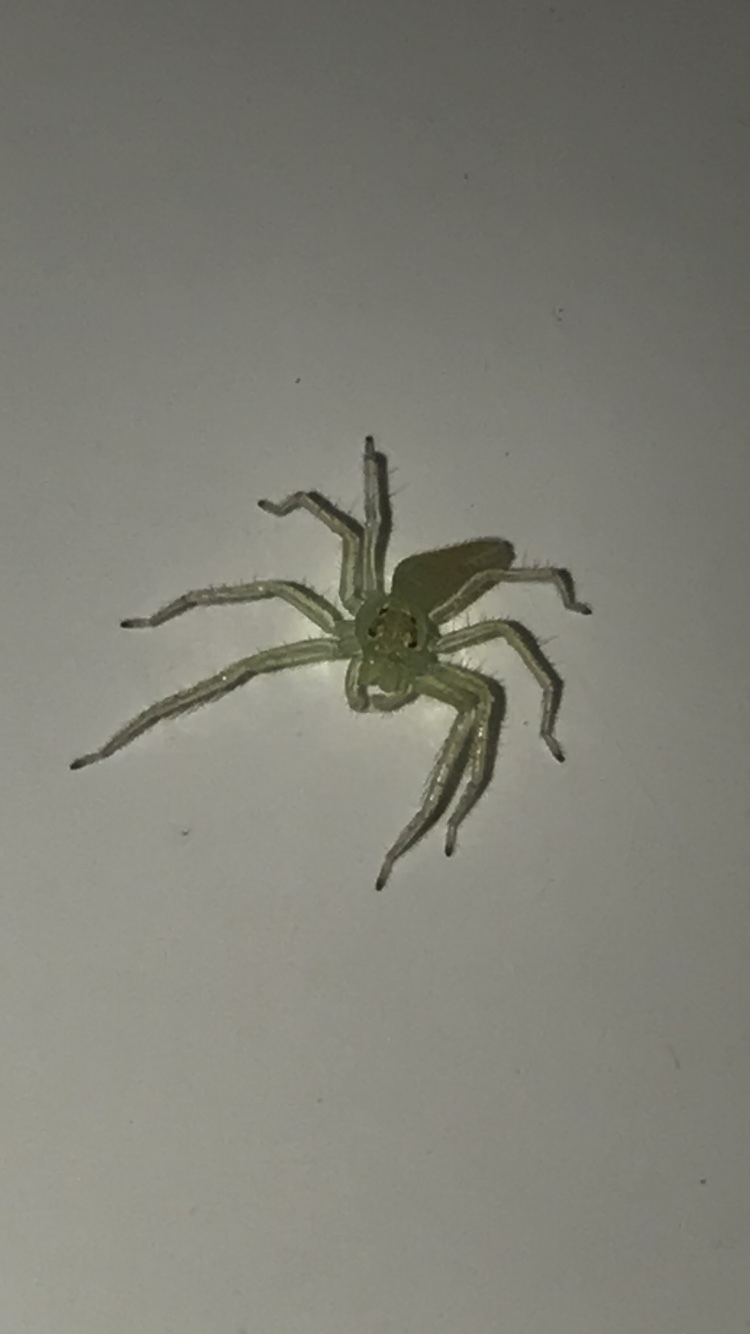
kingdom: Animalia
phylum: Arthropoda
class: Arachnida
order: Araneae
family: Salticidae
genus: Lyssomanes
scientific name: Lyssomanes viridis
